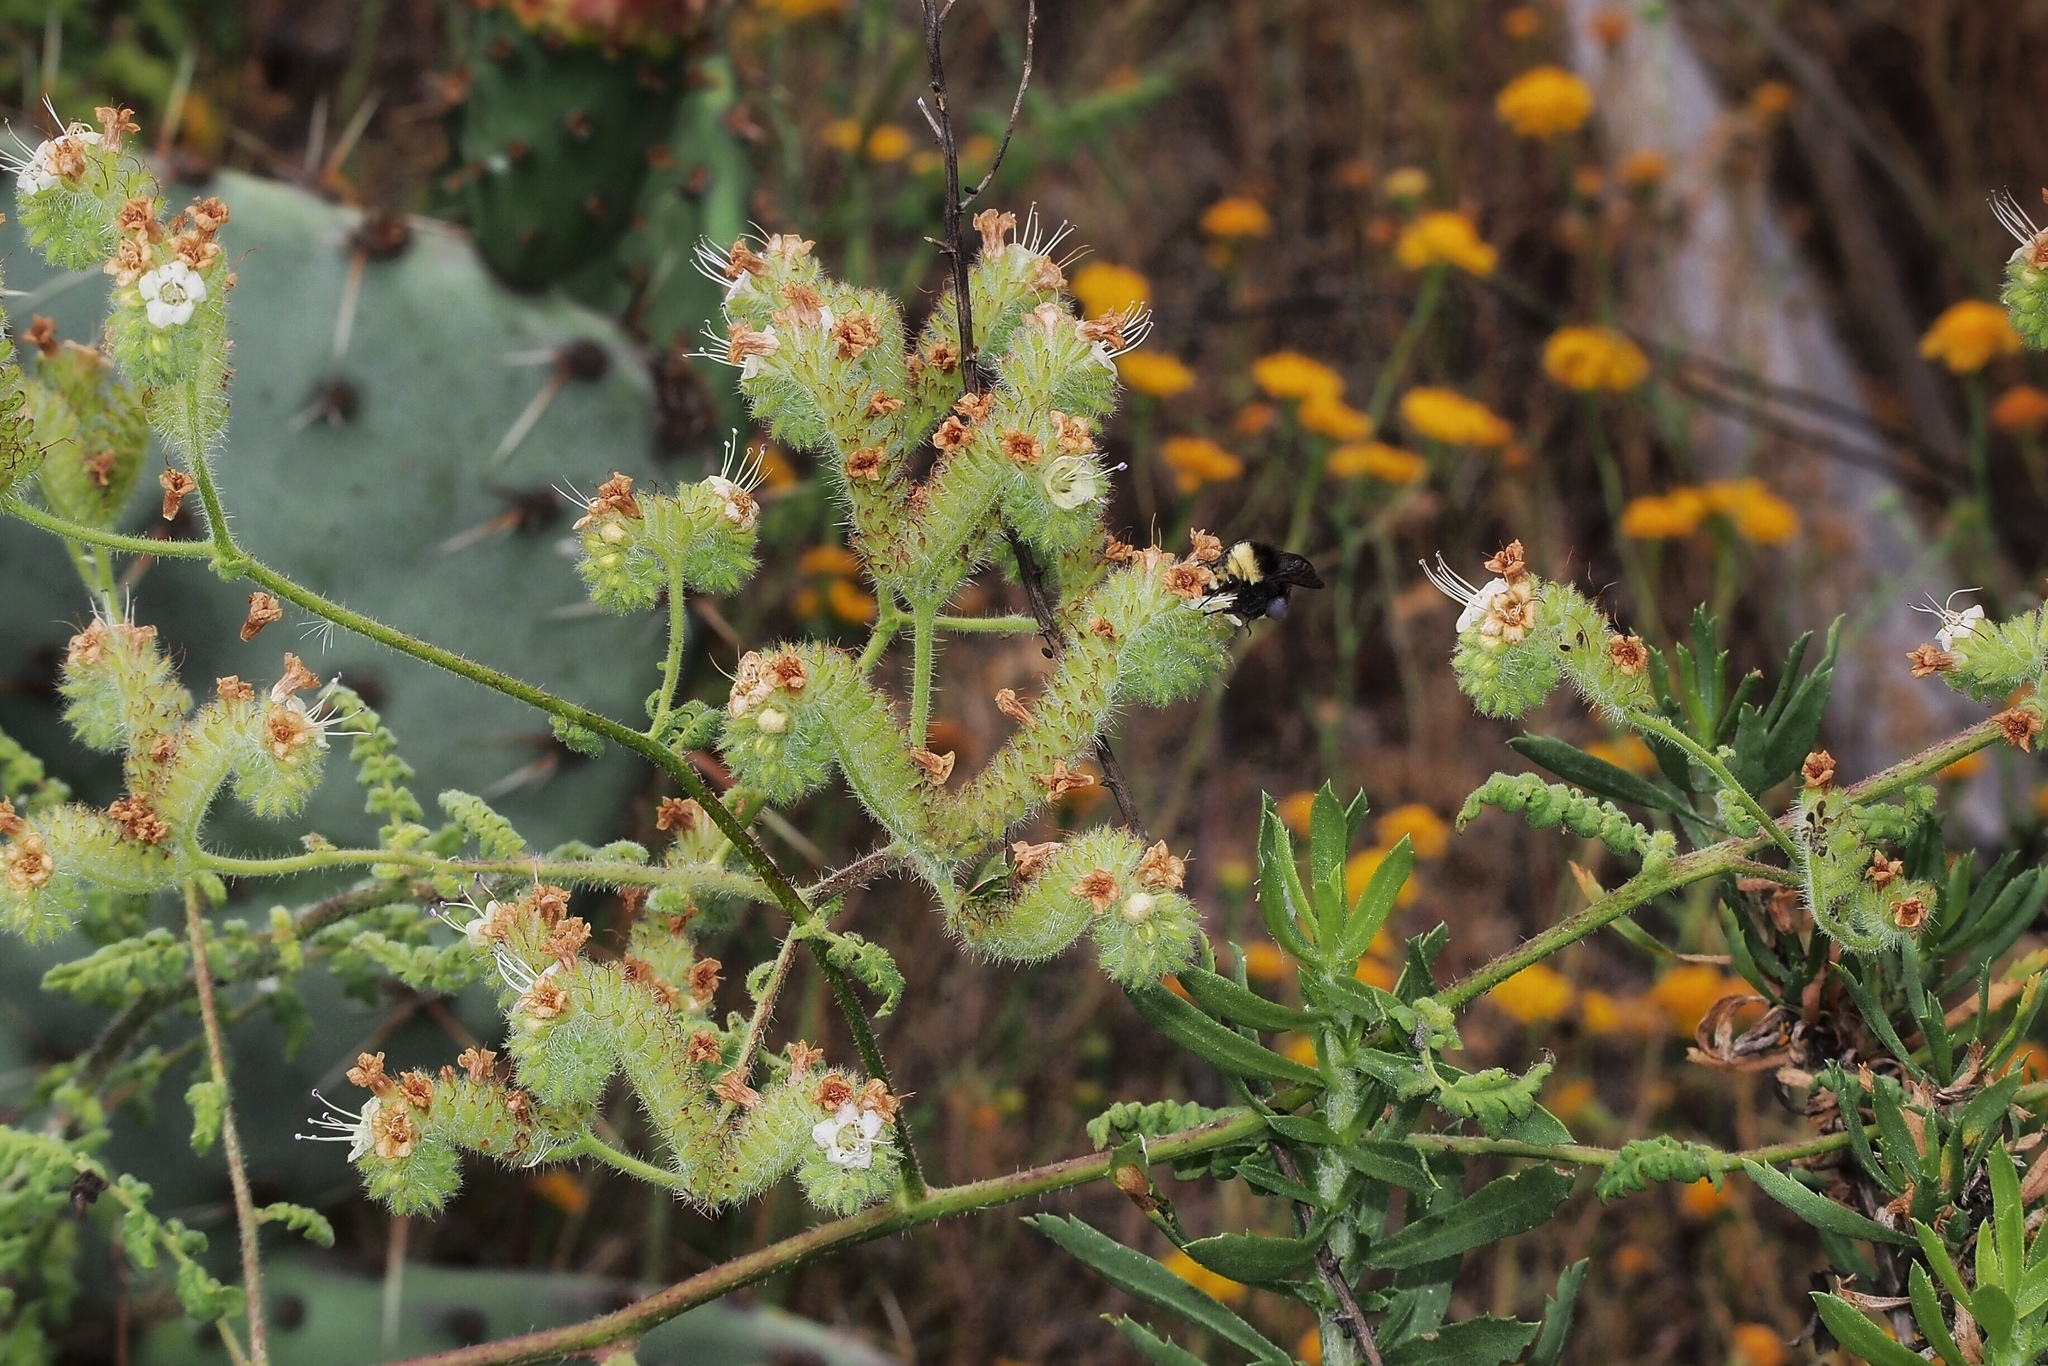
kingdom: Plantae
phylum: Tracheophyta
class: Magnoliopsida
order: Boraginales
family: Hydrophyllaceae
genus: Phacelia
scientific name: Phacelia ramosissima
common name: Branching phacelia
